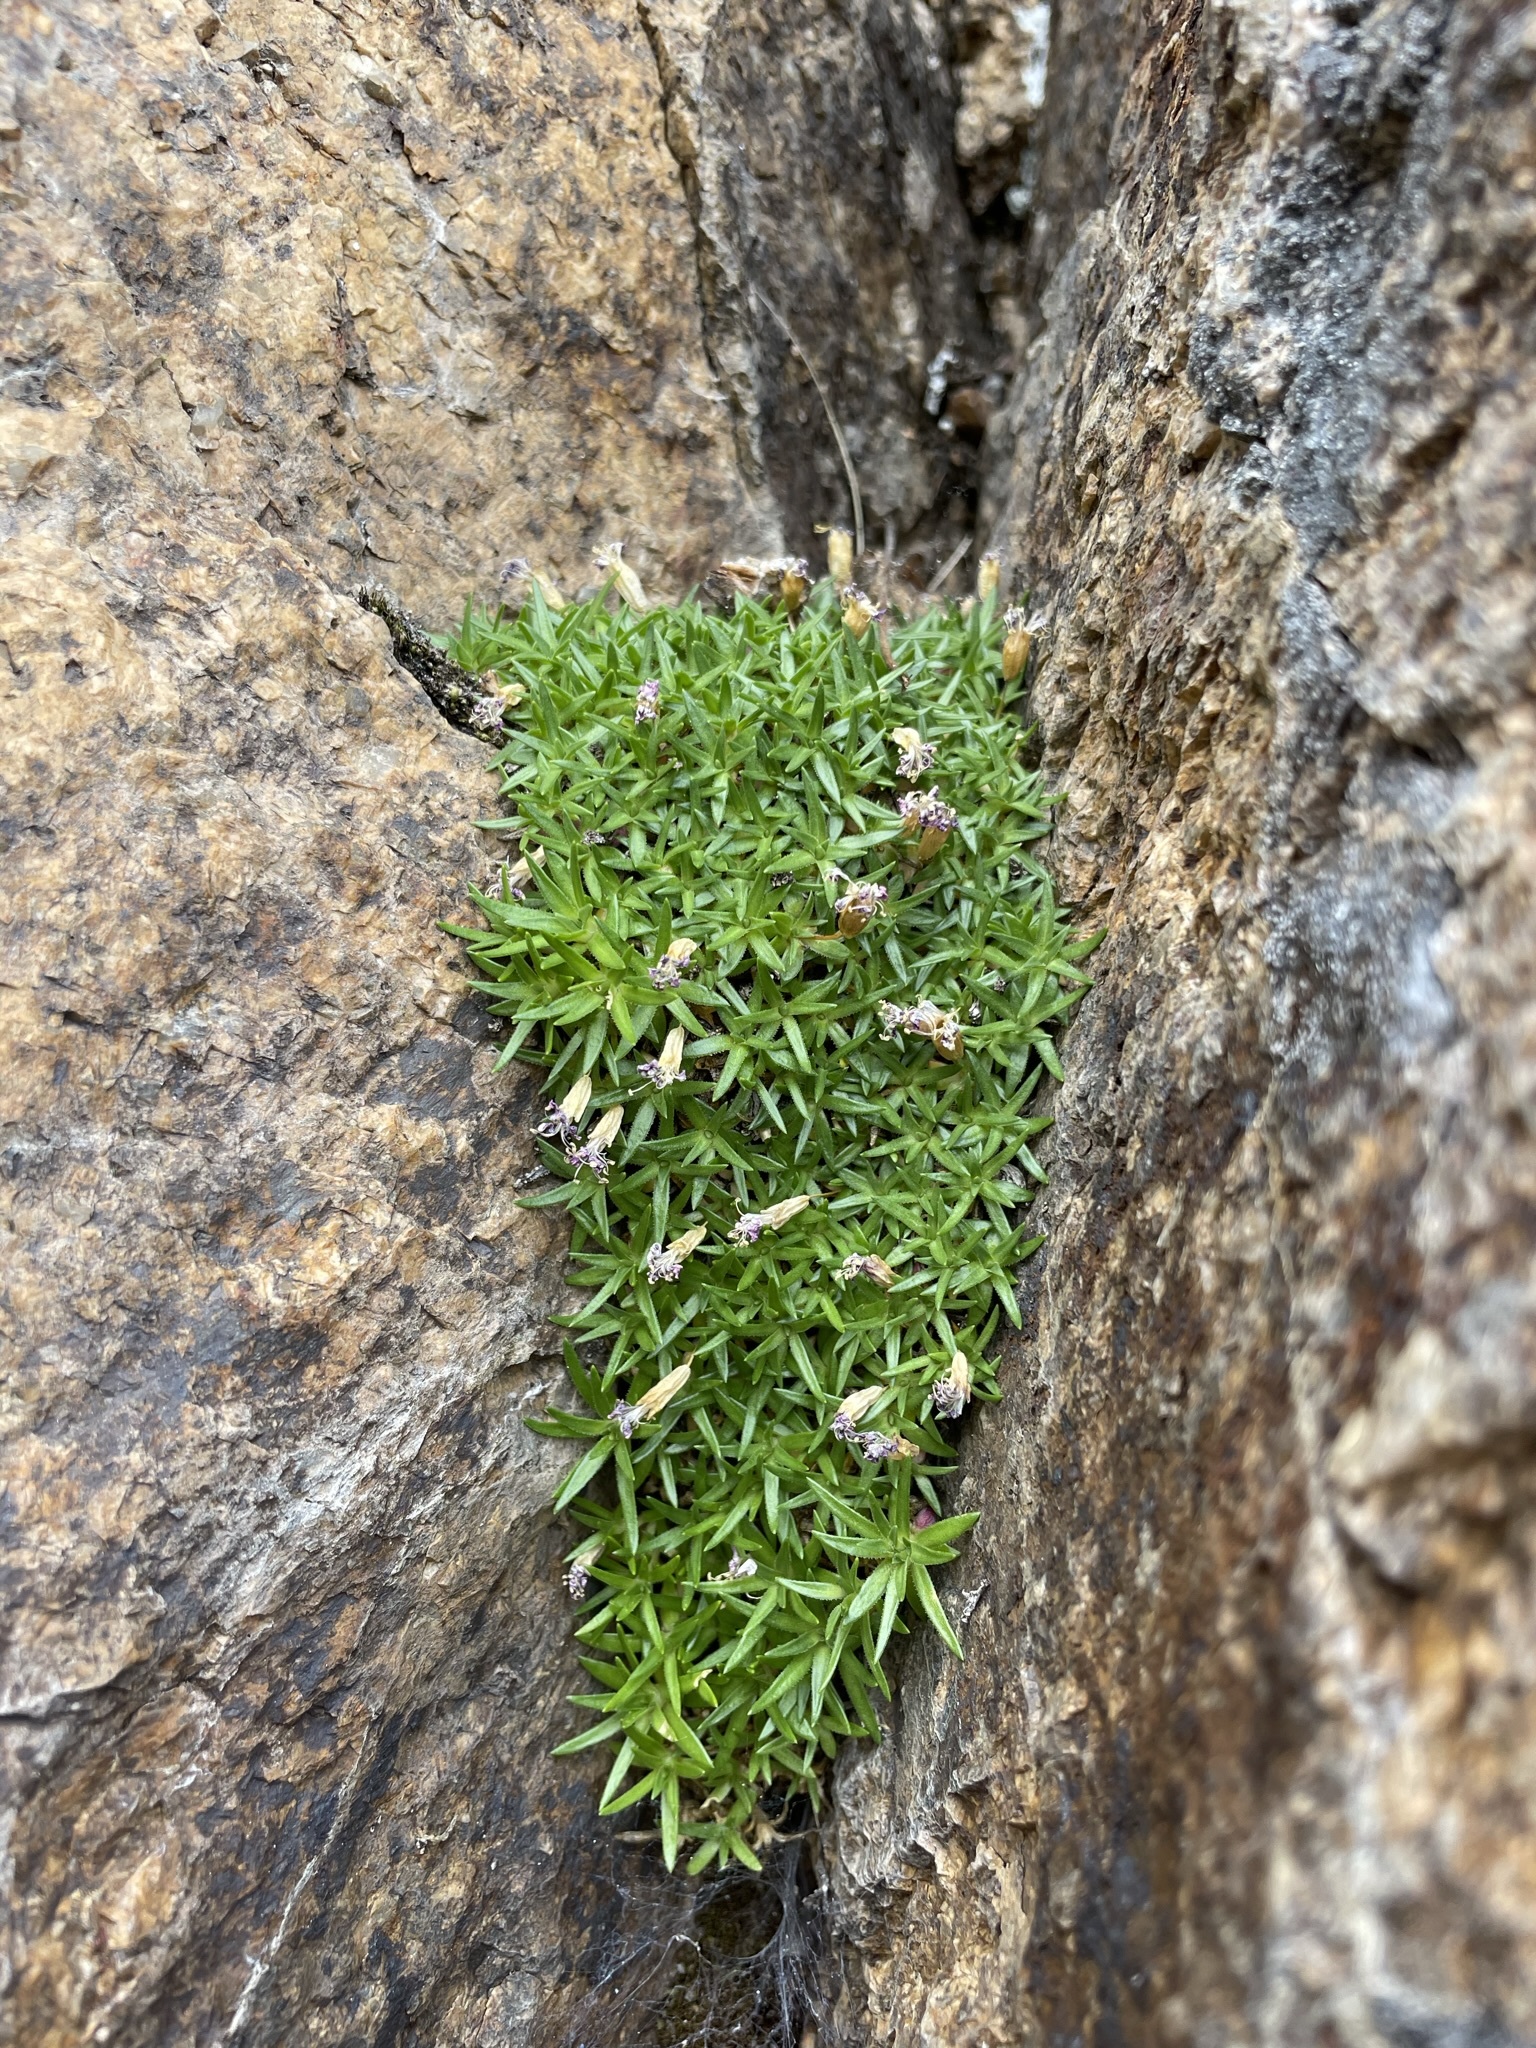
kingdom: Plantae
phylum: Tracheophyta
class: Magnoliopsida
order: Caryophyllales
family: Caryophyllaceae
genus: Silene
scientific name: Silene acaulis
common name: Moss campion
